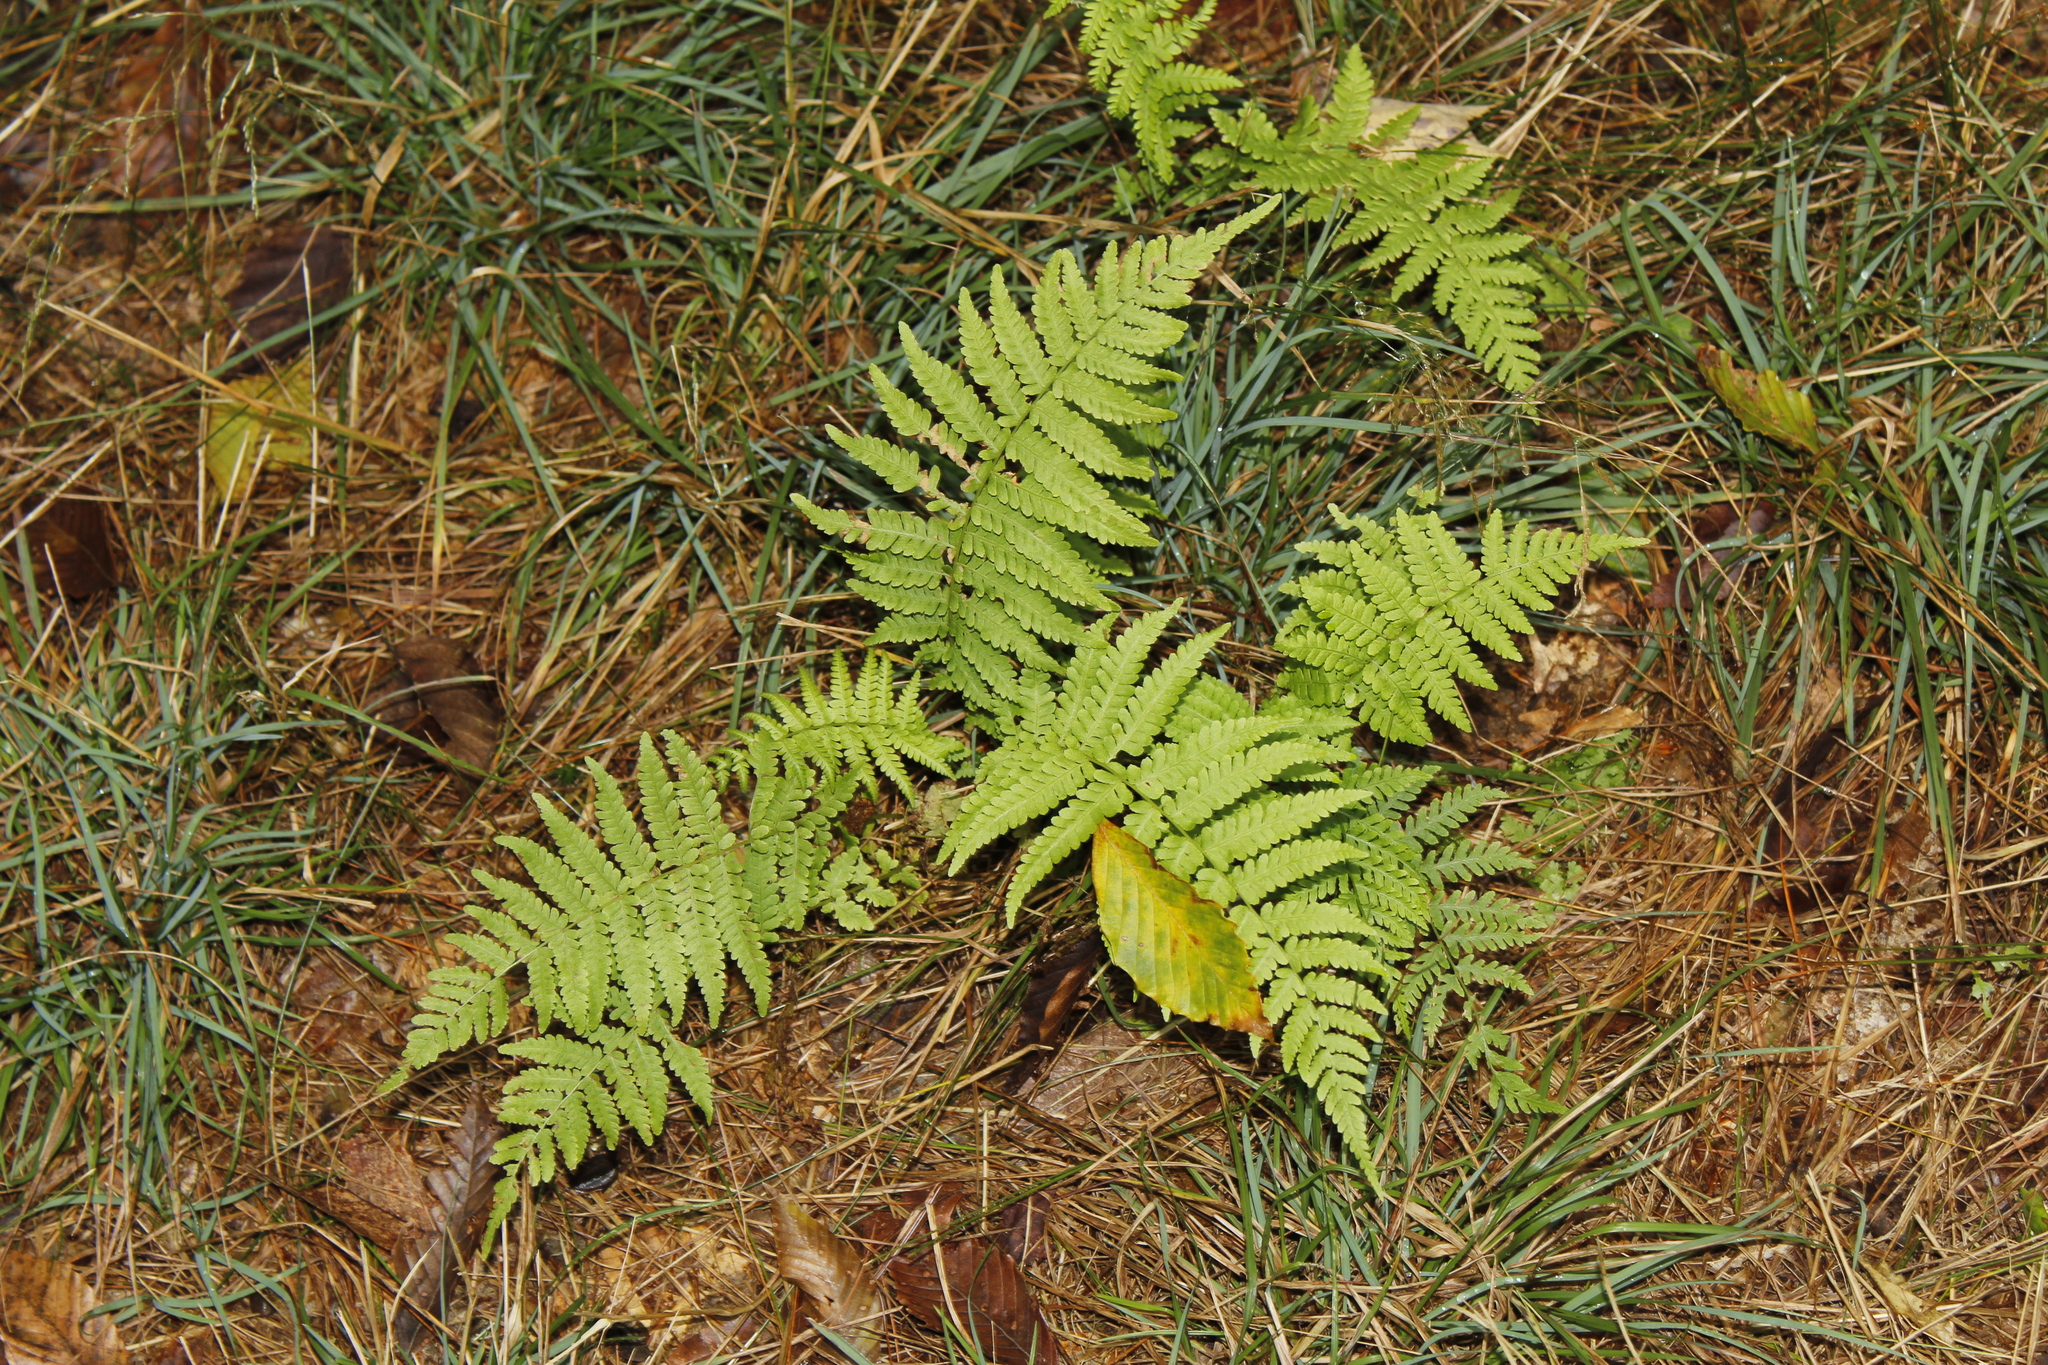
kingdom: Plantae
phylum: Tracheophyta
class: Polypodiopsida
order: Polypodiales
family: Thelypteridaceae
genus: Amauropelta
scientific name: Amauropelta noveboracensis
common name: New york fern
